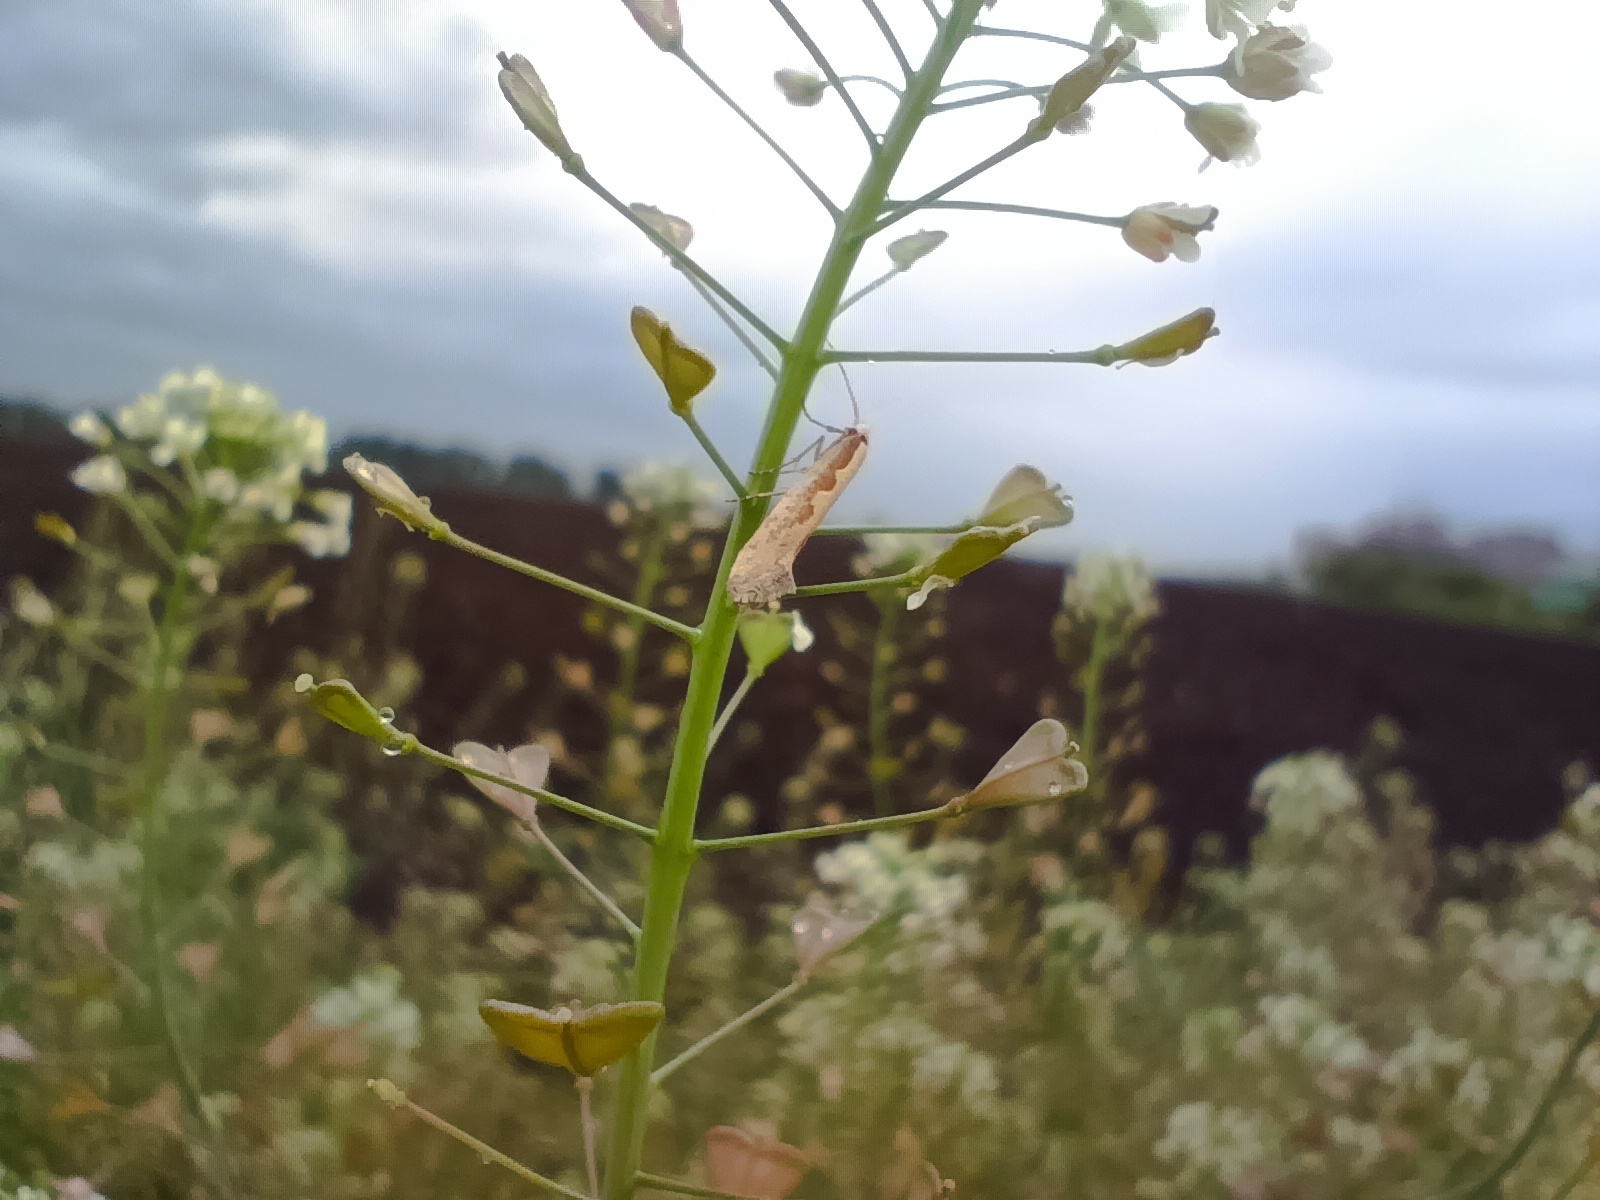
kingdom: Animalia
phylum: Arthropoda
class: Insecta
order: Lepidoptera
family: Plutellidae
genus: Plutella
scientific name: Plutella xylostella
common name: Diamond-back moth
